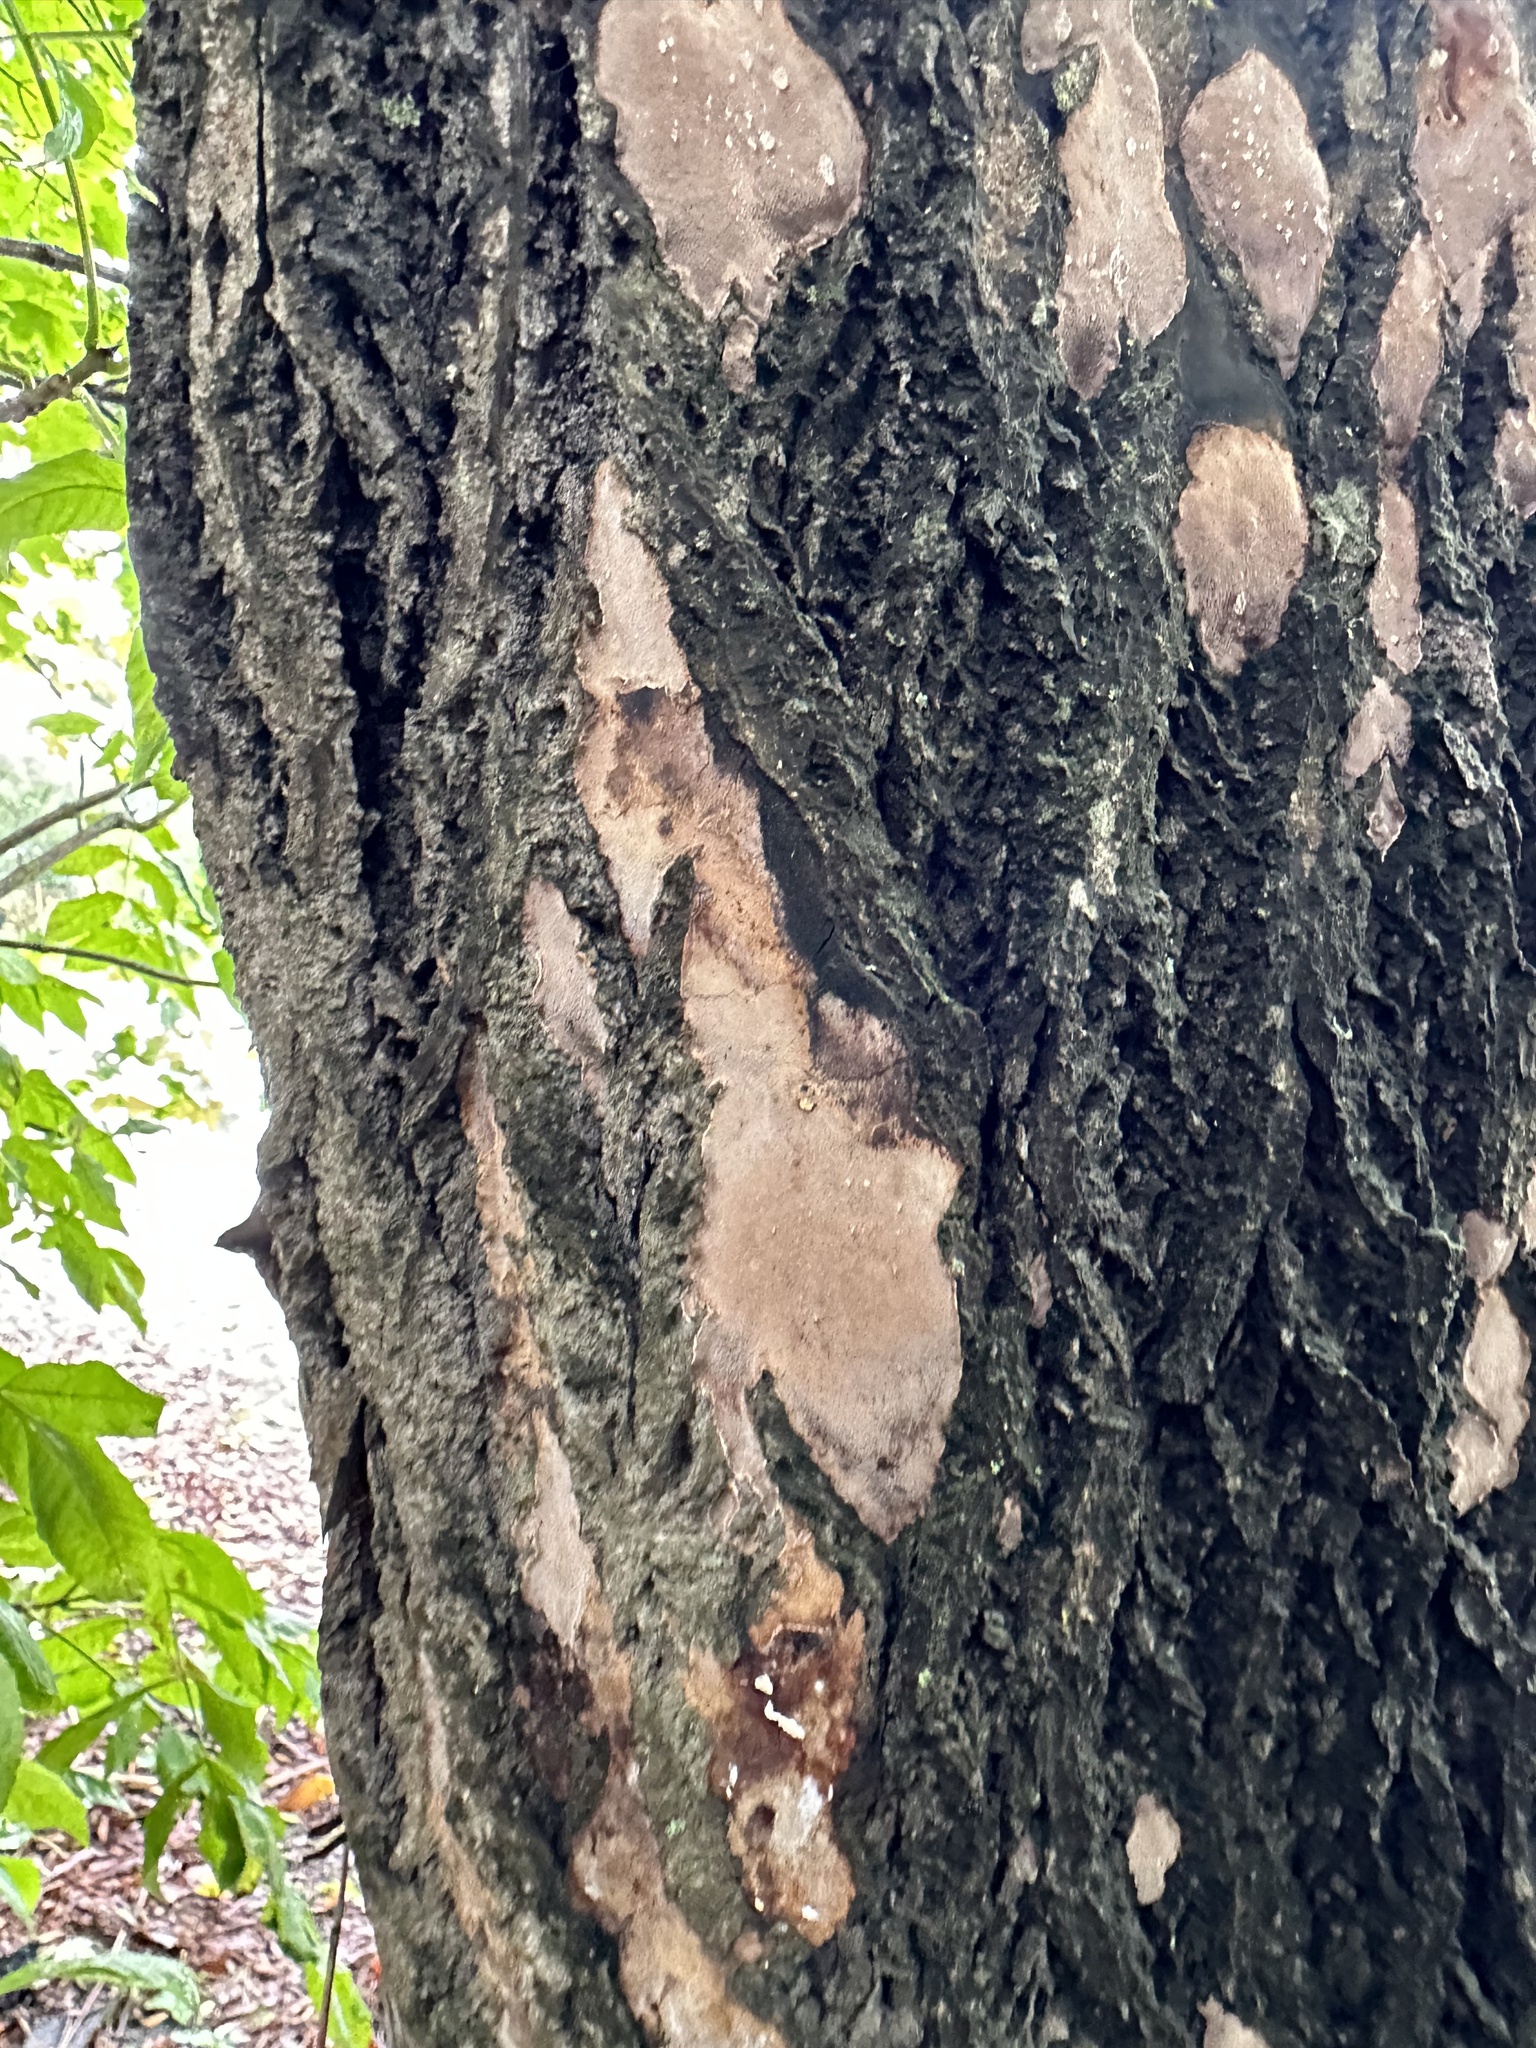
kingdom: Fungi
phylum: Basidiomycota
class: Agaricomycetes
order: Hymenochaetales
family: Hymenochaetaceae
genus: Fomitiporia
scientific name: Fomitiporia punctata
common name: Elbowpatch crust
